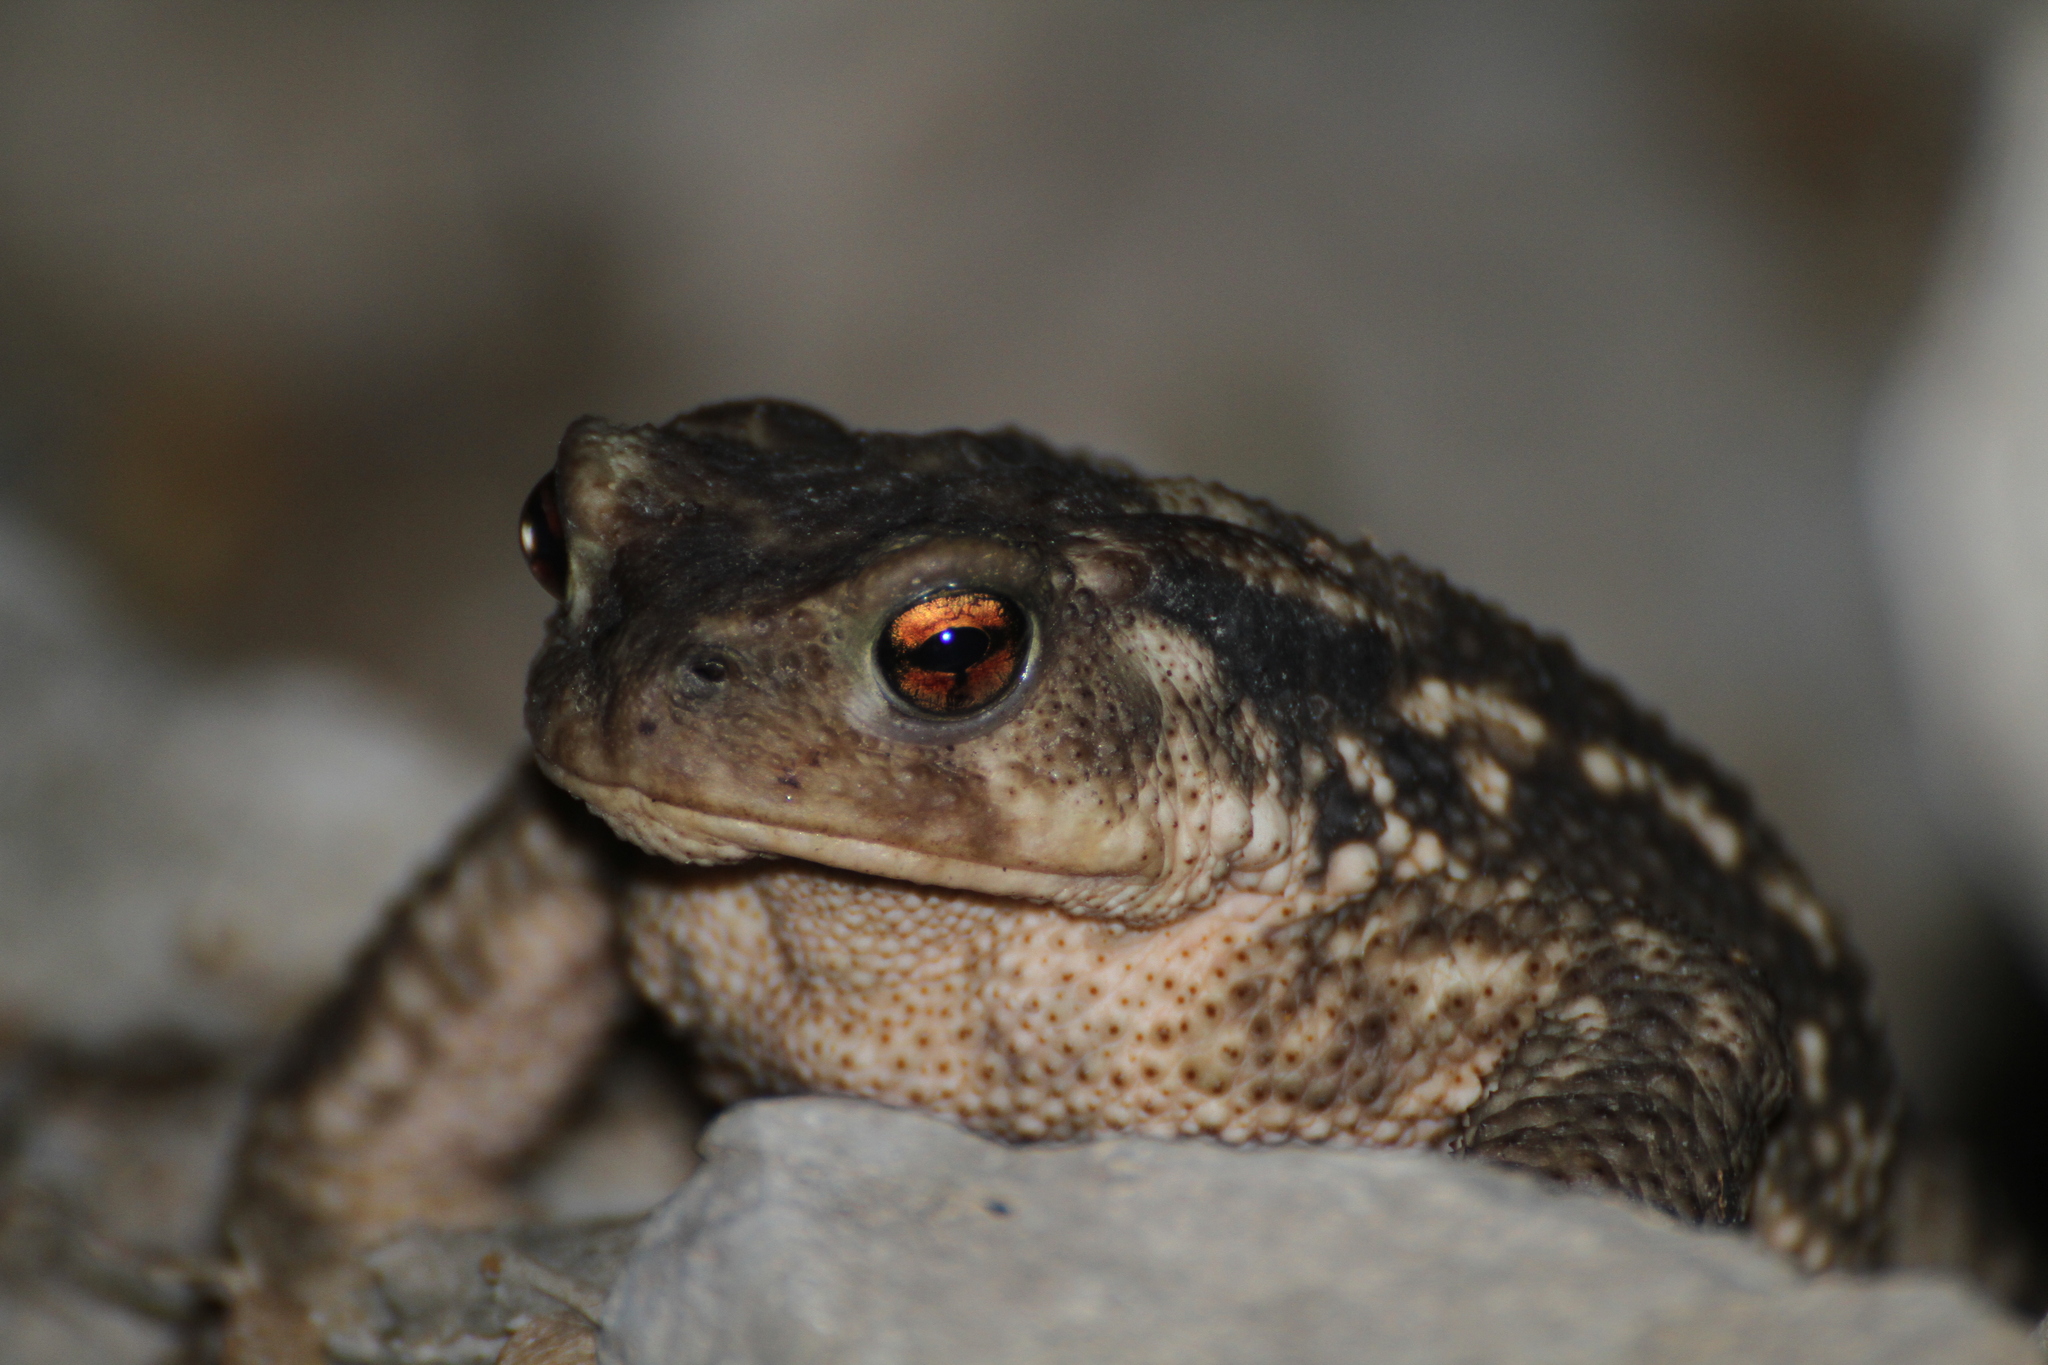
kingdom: Animalia
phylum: Chordata
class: Amphibia
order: Anura
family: Bufonidae
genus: Bufo
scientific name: Bufo spinosus
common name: Western common toad
